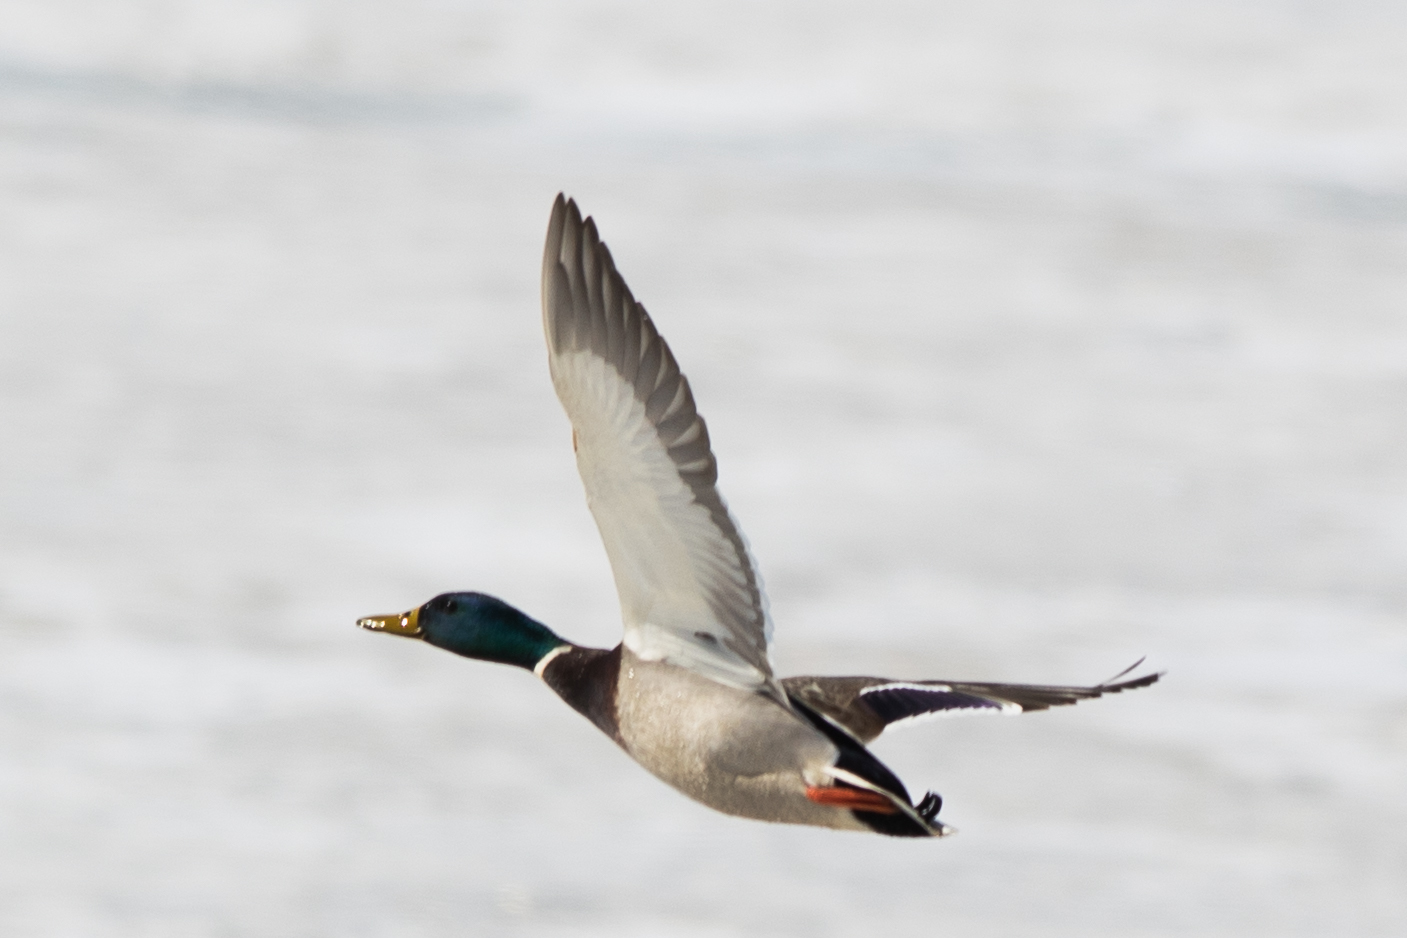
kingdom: Animalia
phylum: Chordata
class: Aves
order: Anseriformes
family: Anatidae
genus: Anas
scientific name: Anas platyrhynchos
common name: Mallard
